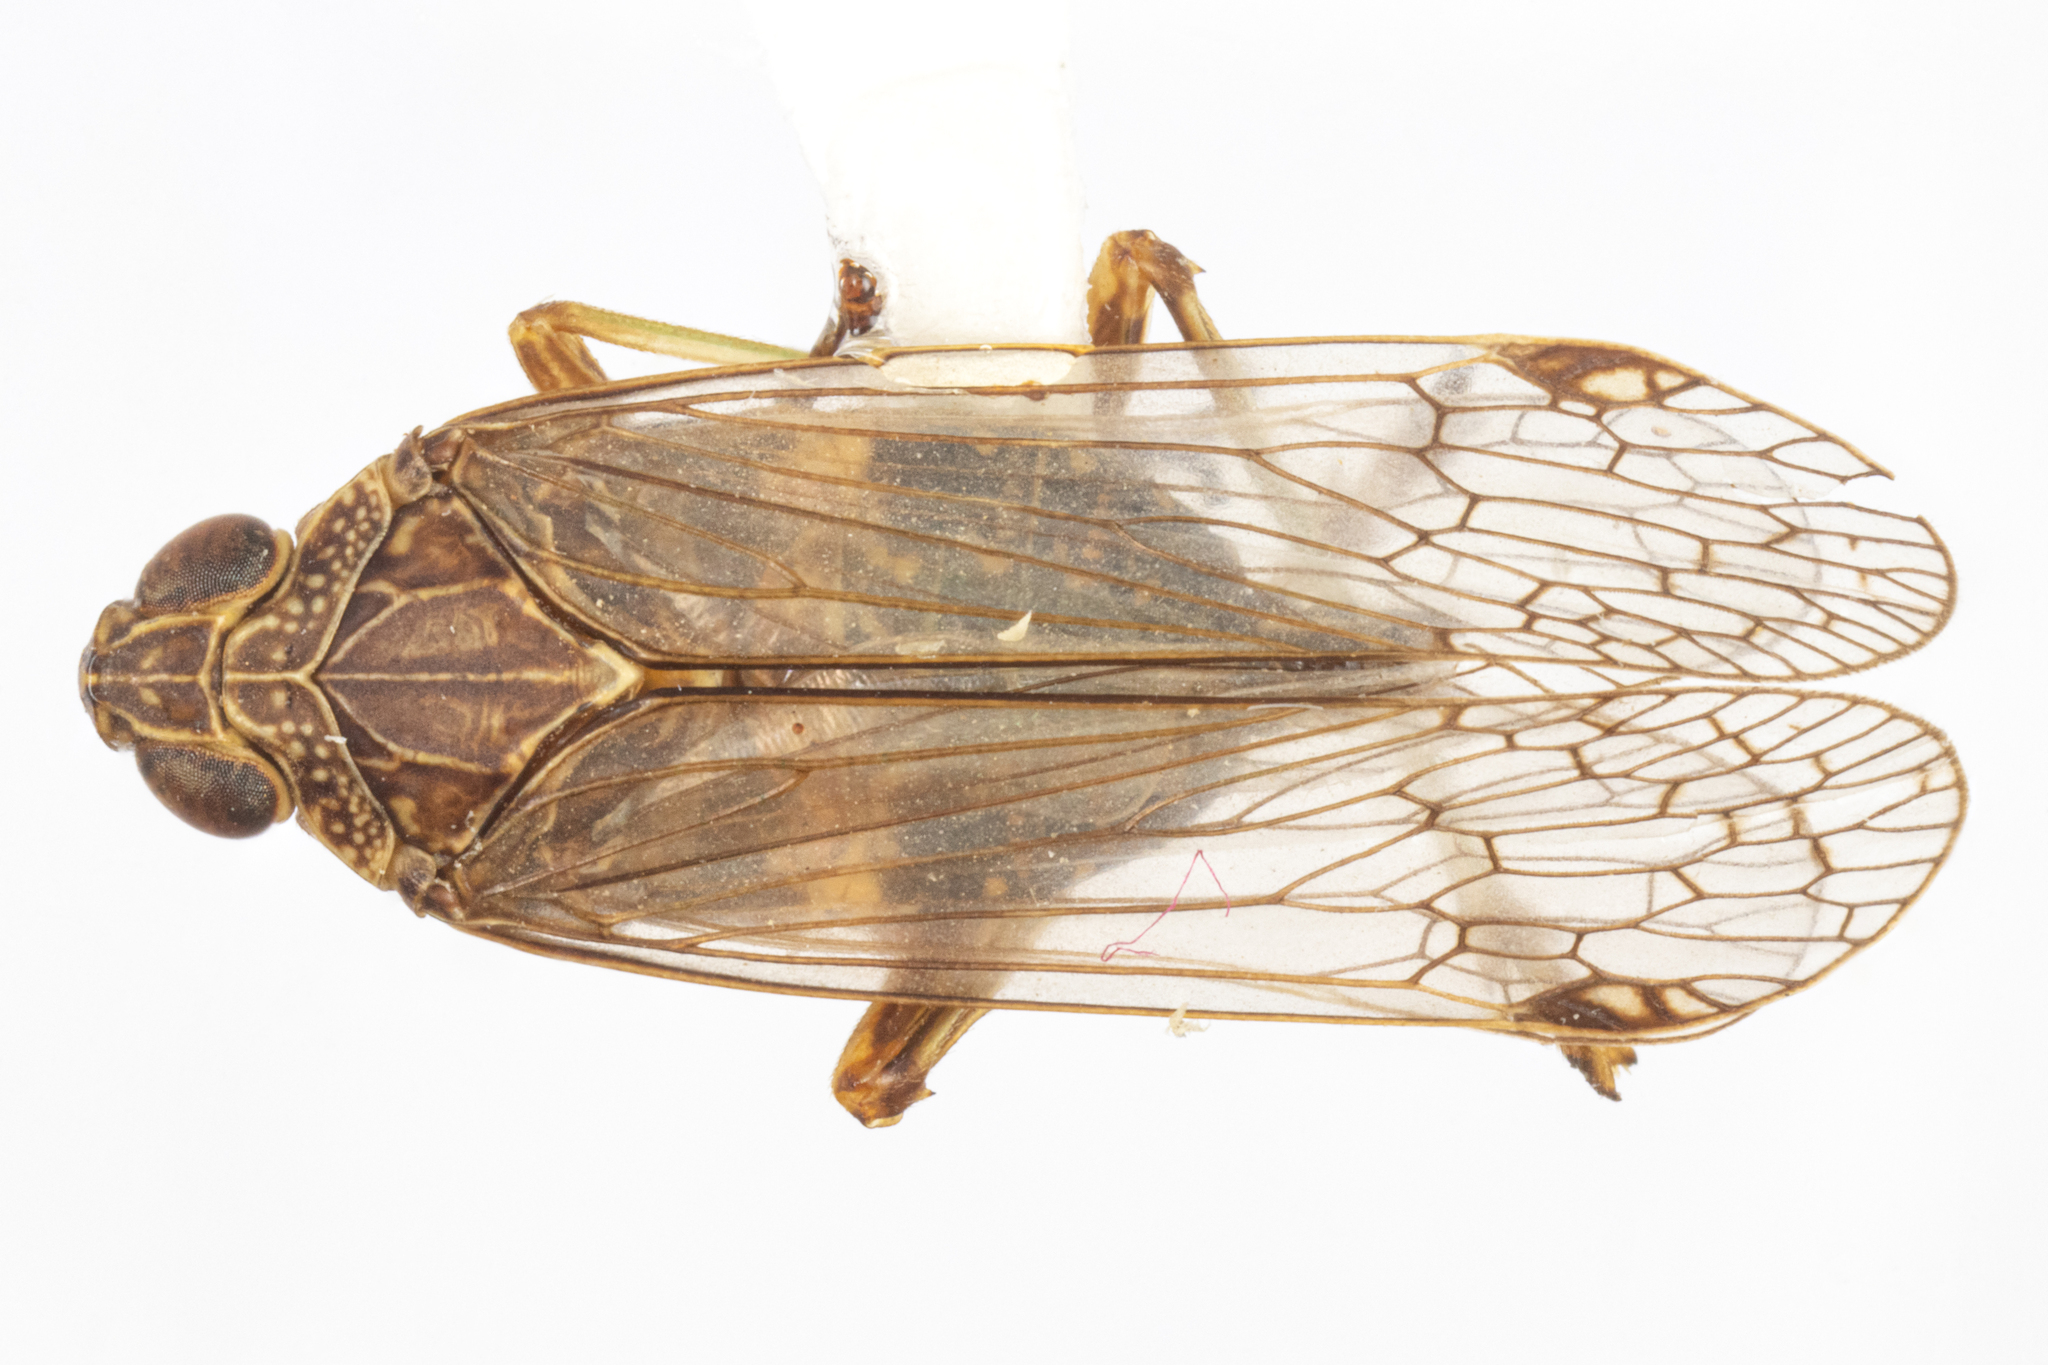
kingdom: Animalia
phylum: Arthropoda
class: Insecta
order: Hemiptera
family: Dictyopharidae
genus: Chondrophana
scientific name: Chondrophana gayi
